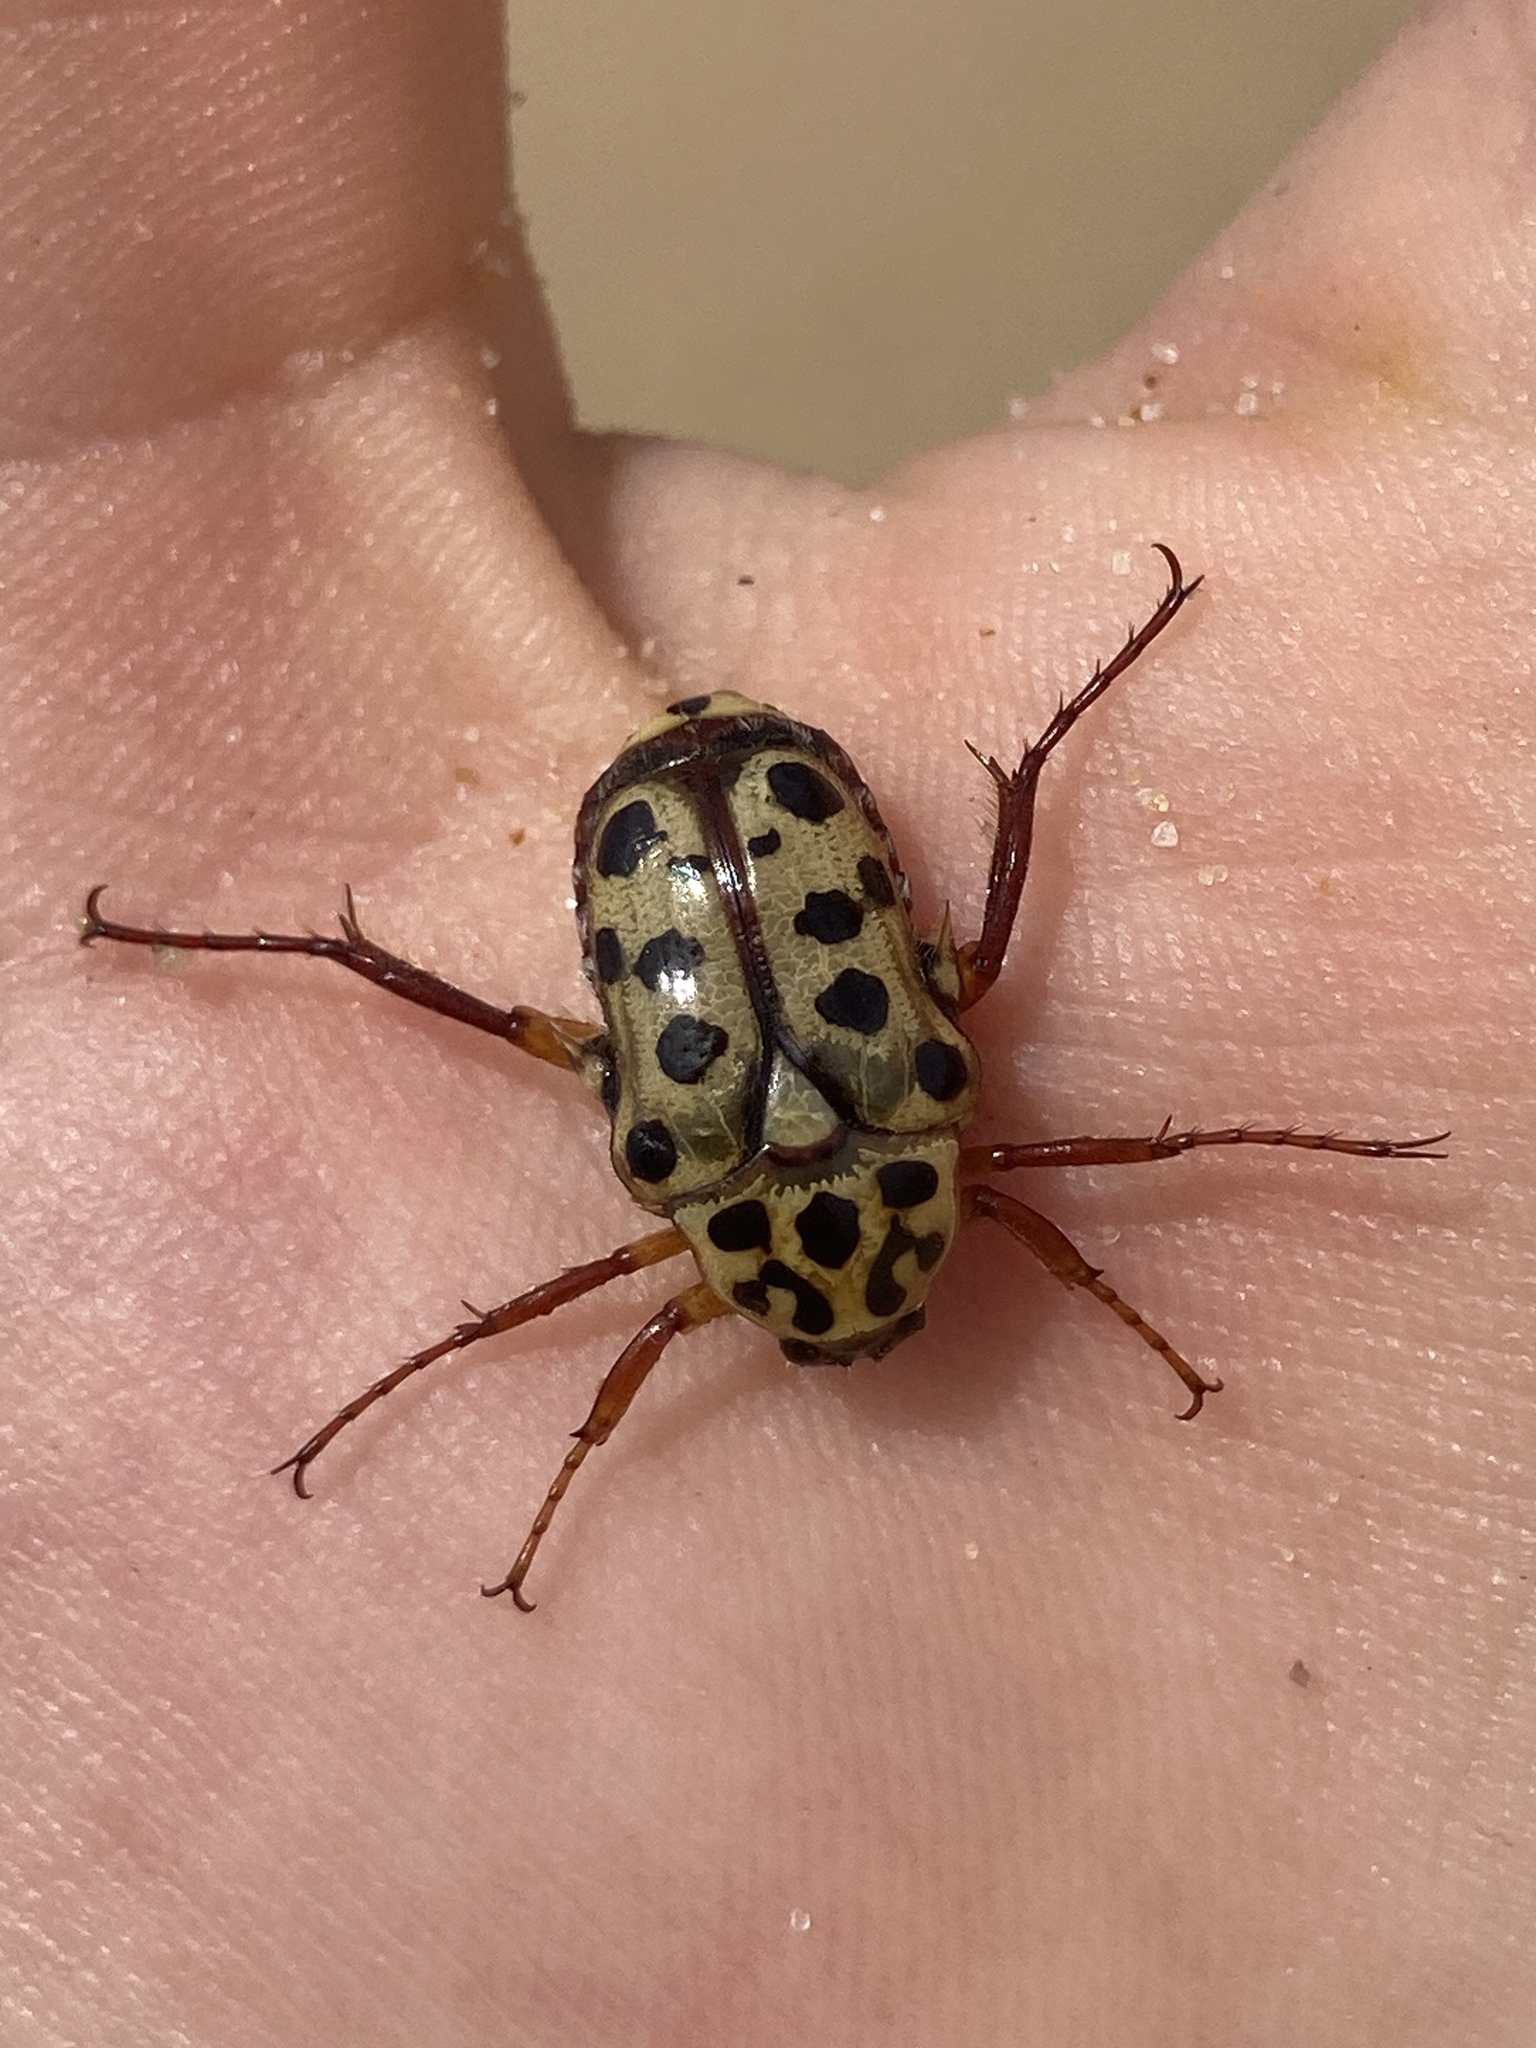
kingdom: Animalia
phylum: Arthropoda
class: Insecta
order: Coleoptera
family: Scarabaeidae
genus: Neorrhina
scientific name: Neorrhina punctatum
